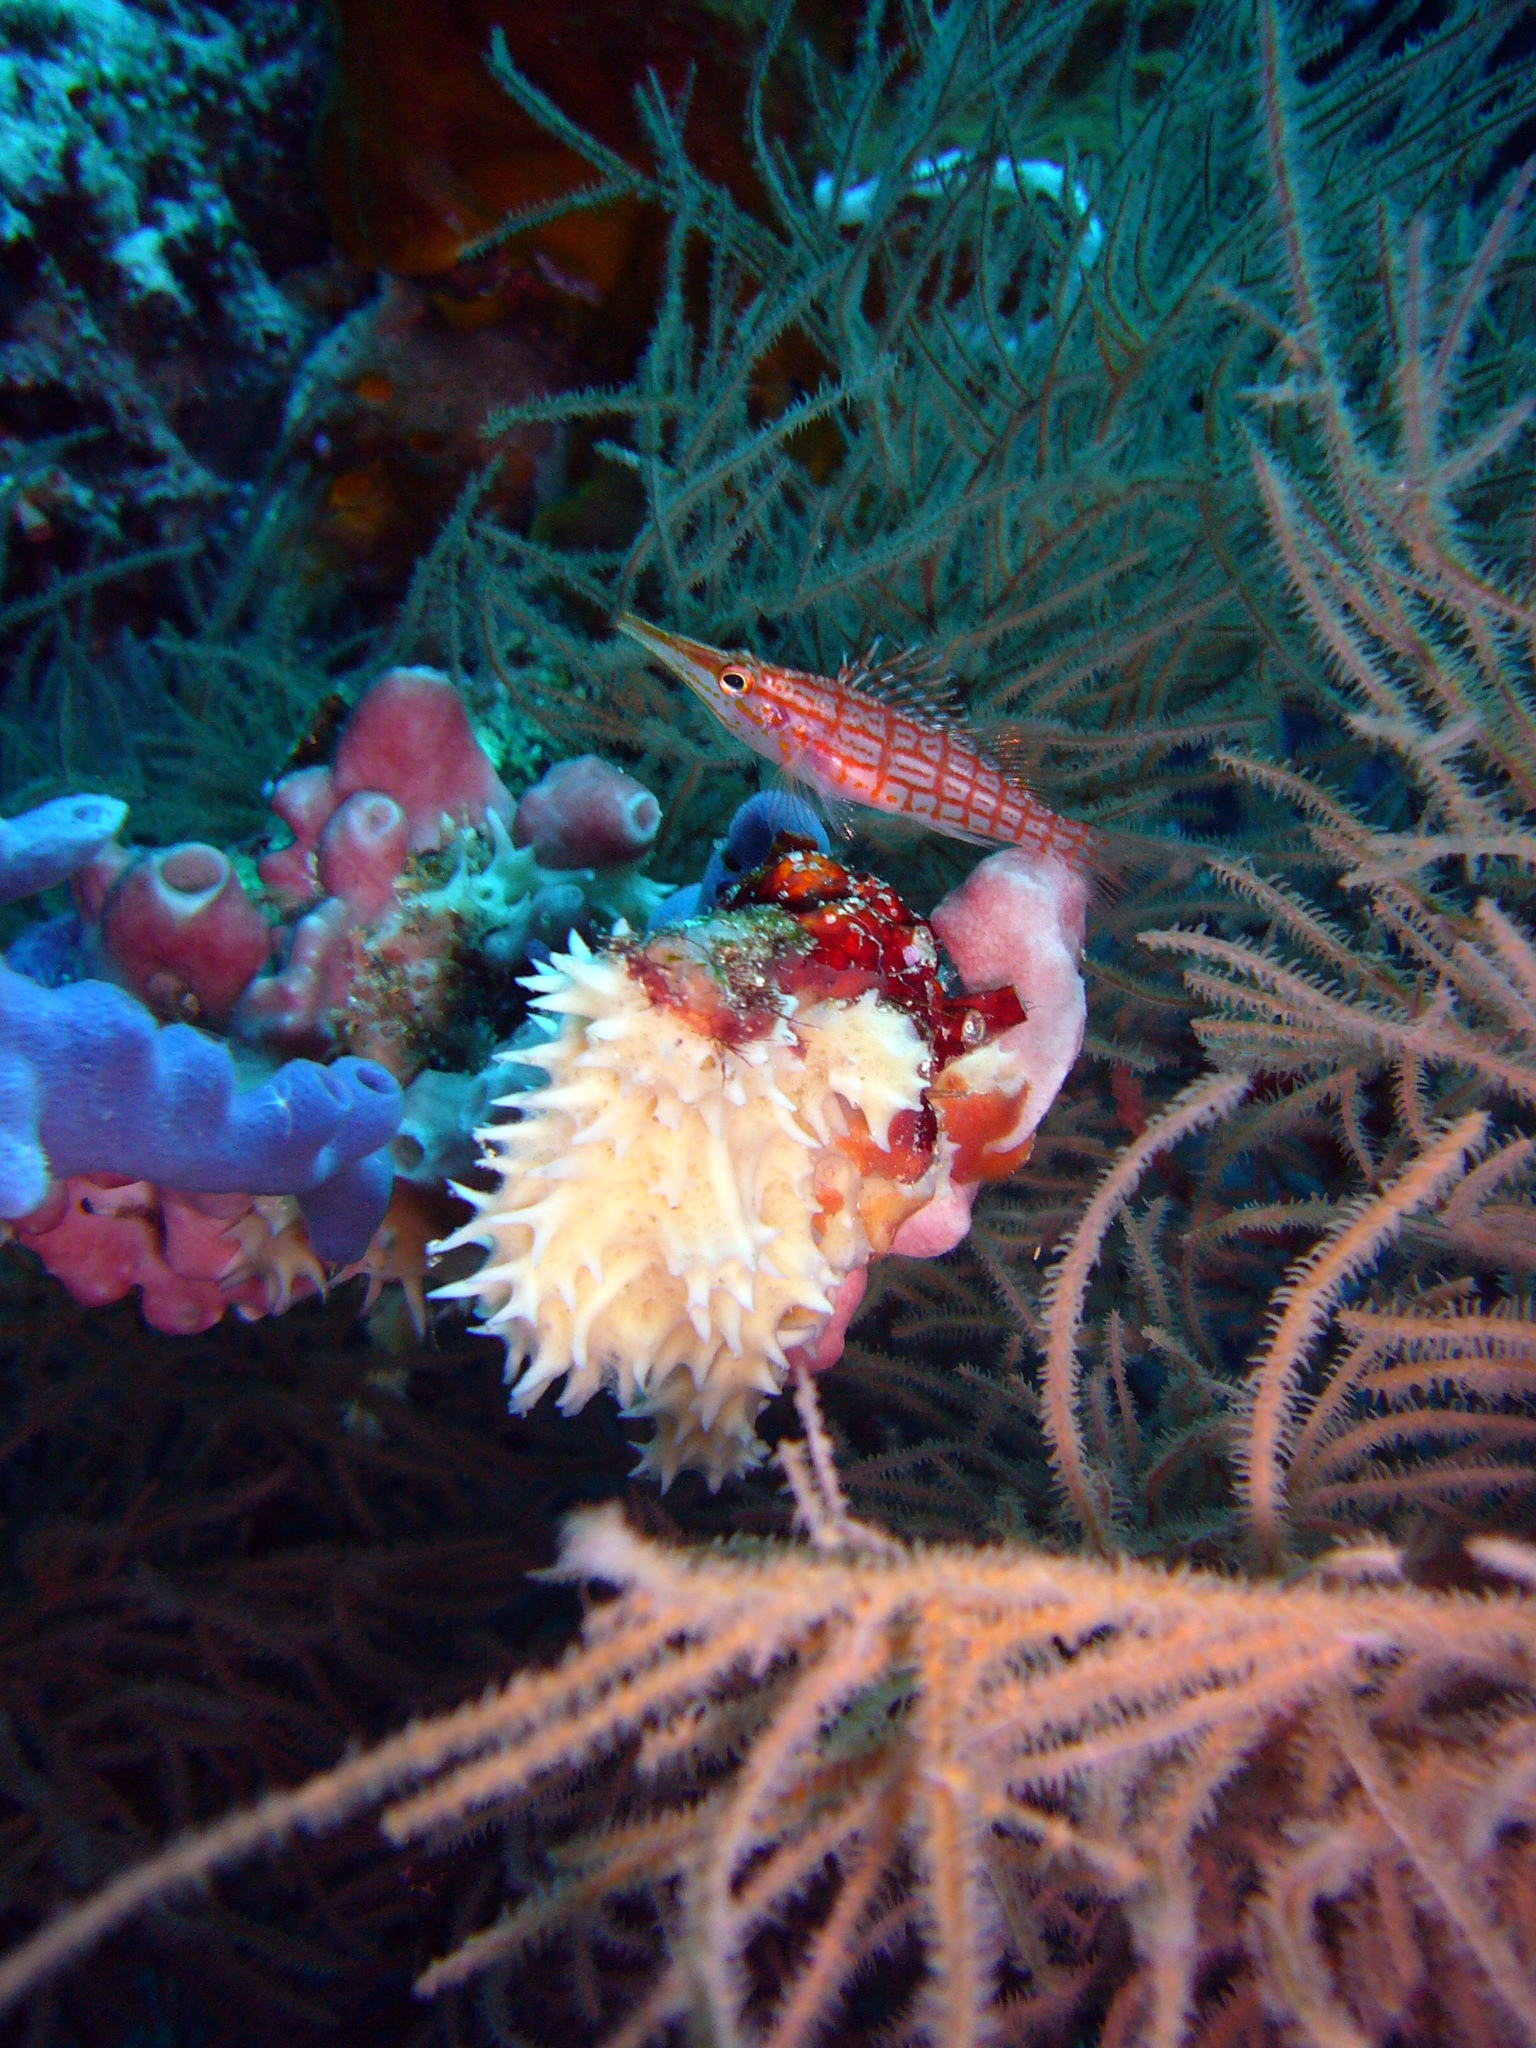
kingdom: Animalia
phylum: Chordata
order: Perciformes
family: Cirrhitidae
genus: Oxycirrhites
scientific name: Oxycirrhites typus
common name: Longnose hawkfish
